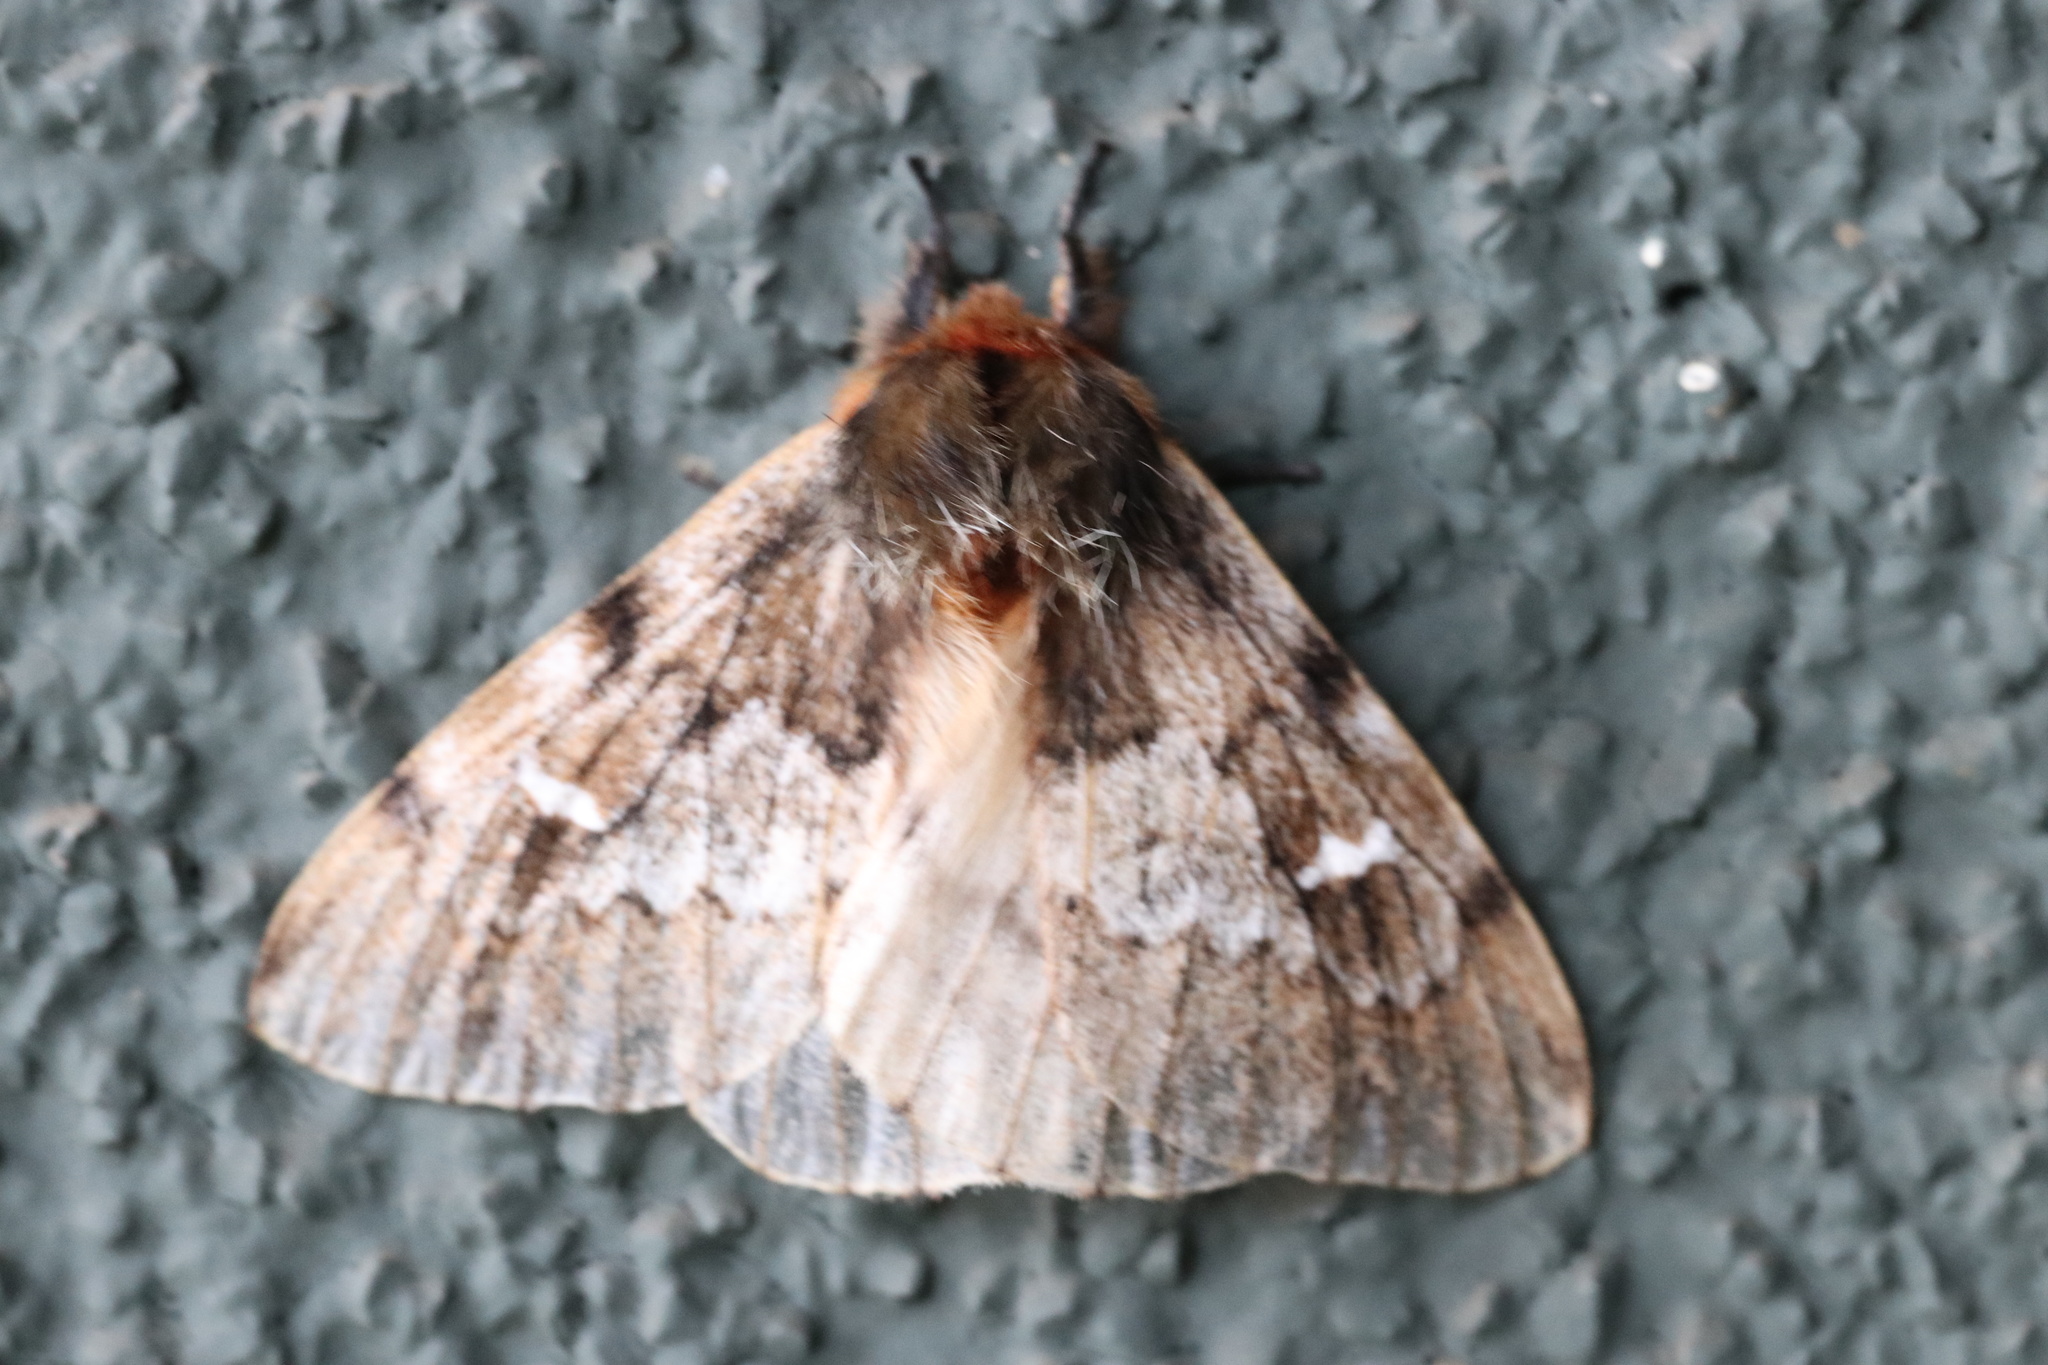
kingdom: Animalia
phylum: Arthropoda
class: Insecta
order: Lepidoptera
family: Saturniidae
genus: Ormiscodes
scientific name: Ormiscodes nigrosignata
